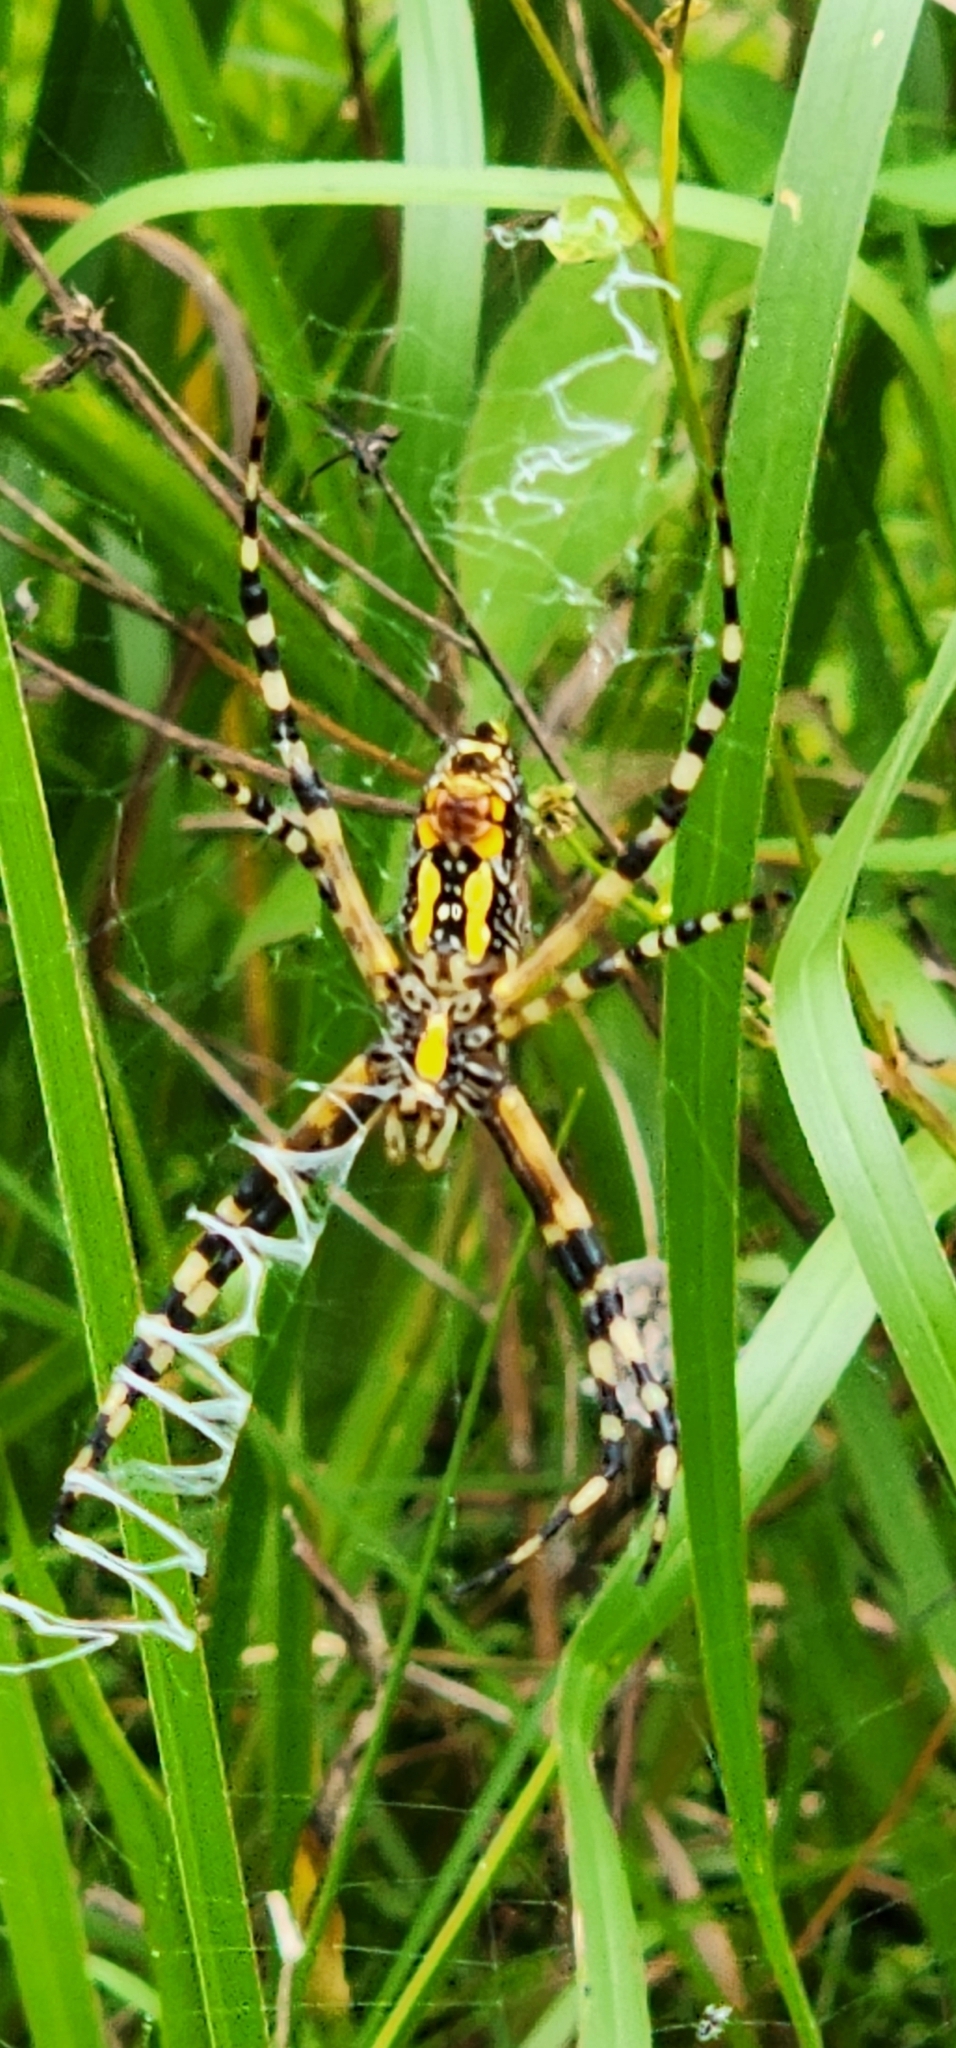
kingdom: Animalia
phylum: Arthropoda
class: Arachnida
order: Araneae
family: Araneidae
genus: Argiope
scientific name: Argiope aurantia
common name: Orb weavers
